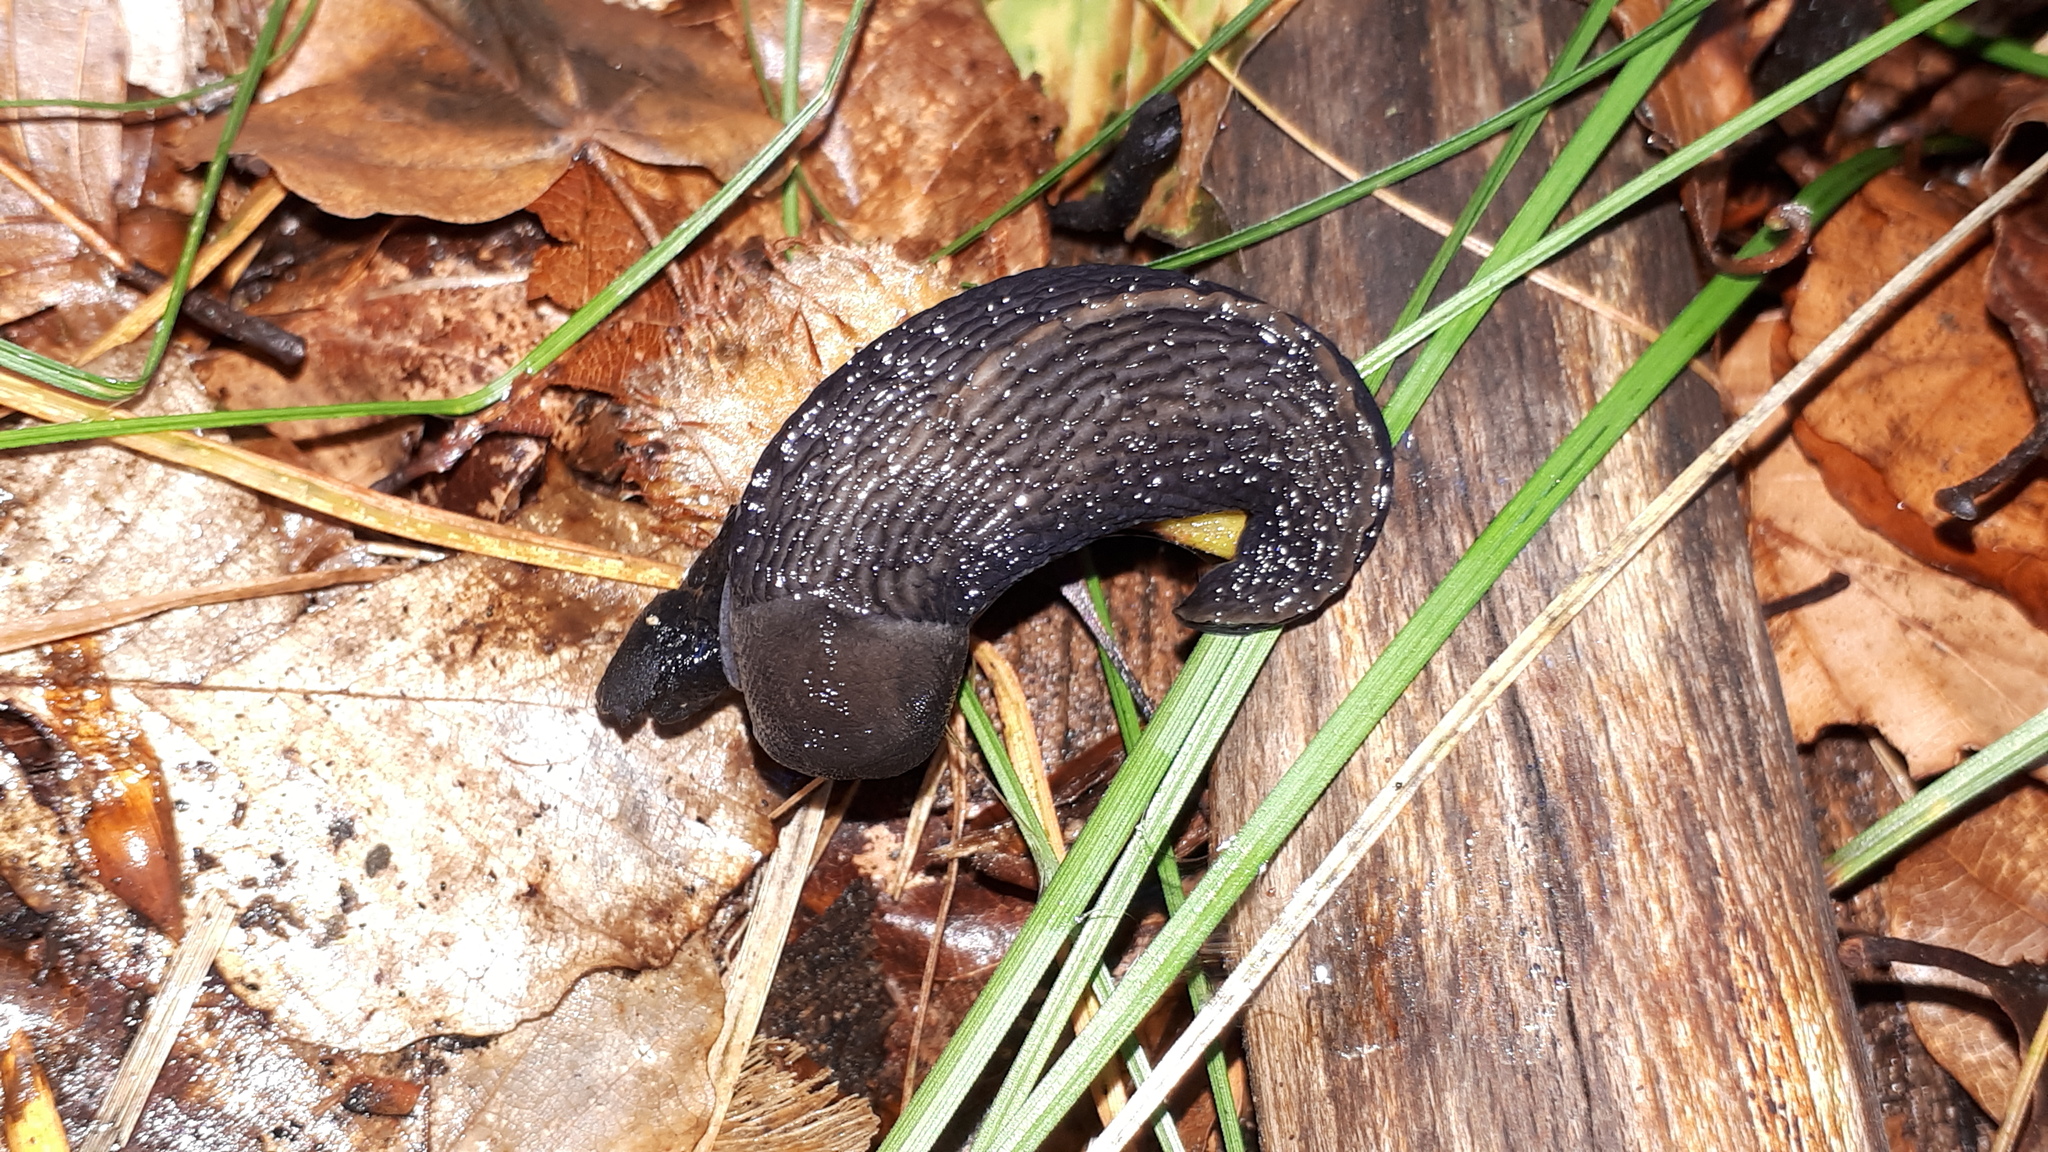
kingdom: Animalia
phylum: Mollusca
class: Gastropoda
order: Stylommatophora
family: Limacidae
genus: Limax
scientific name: Limax cinereoniger
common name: Ash-black slug
